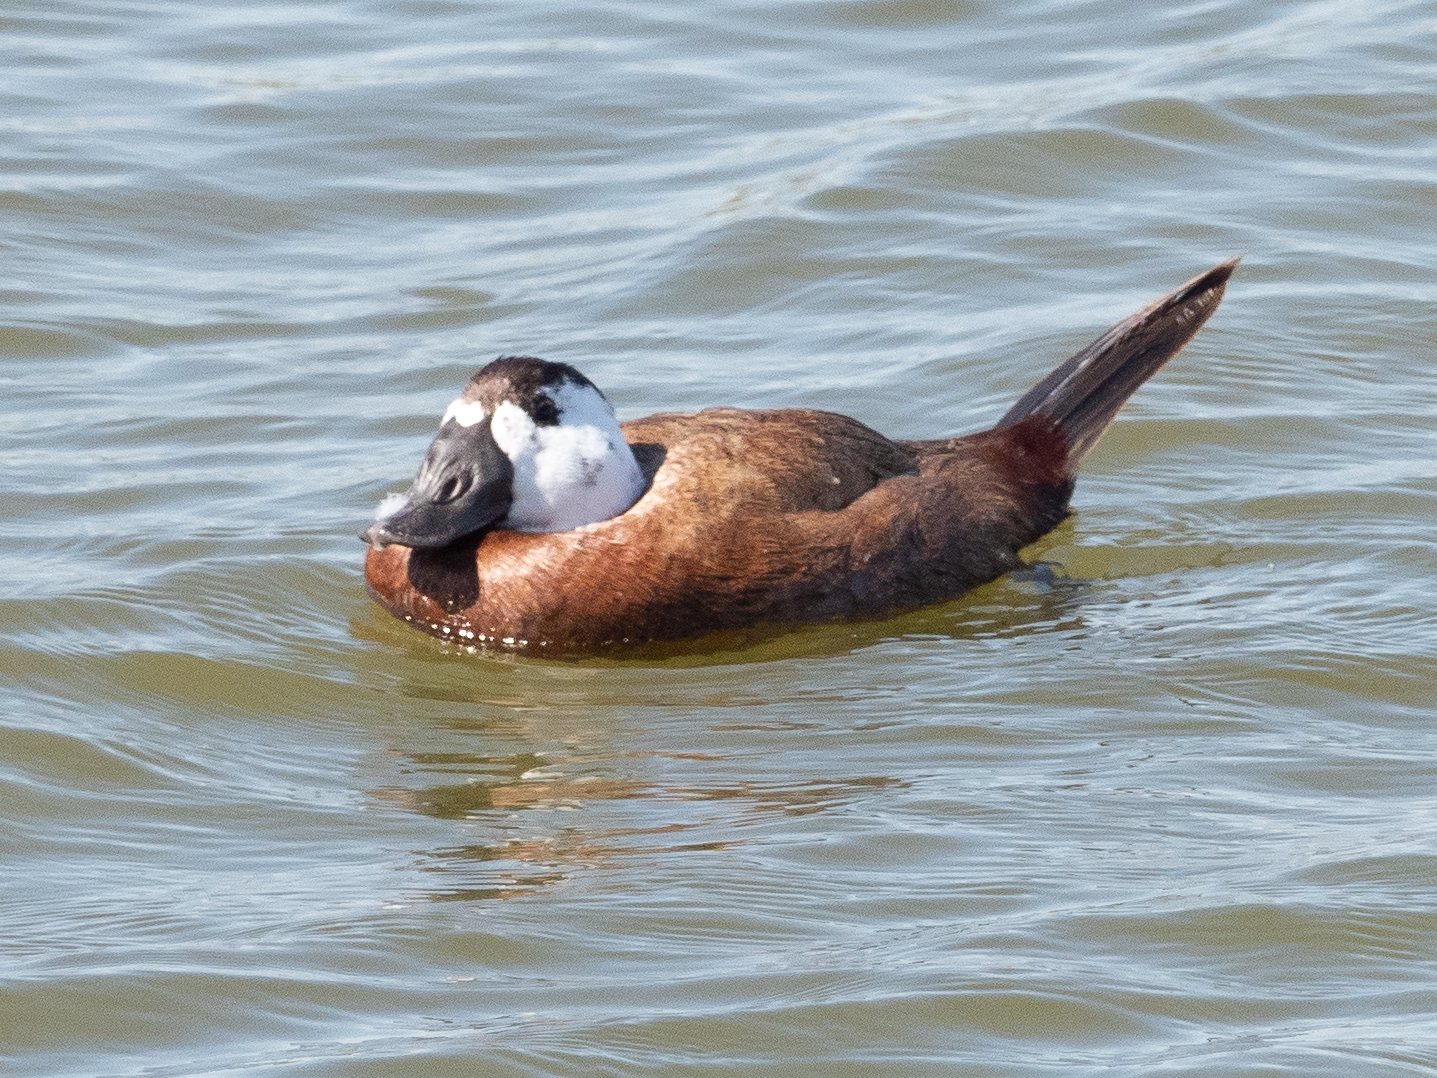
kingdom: Animalia
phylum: Chordata
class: Aves
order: Anseriformes
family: Anatidae
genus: Oxyura
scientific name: Oxyura leucocephala
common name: White-headed duck
